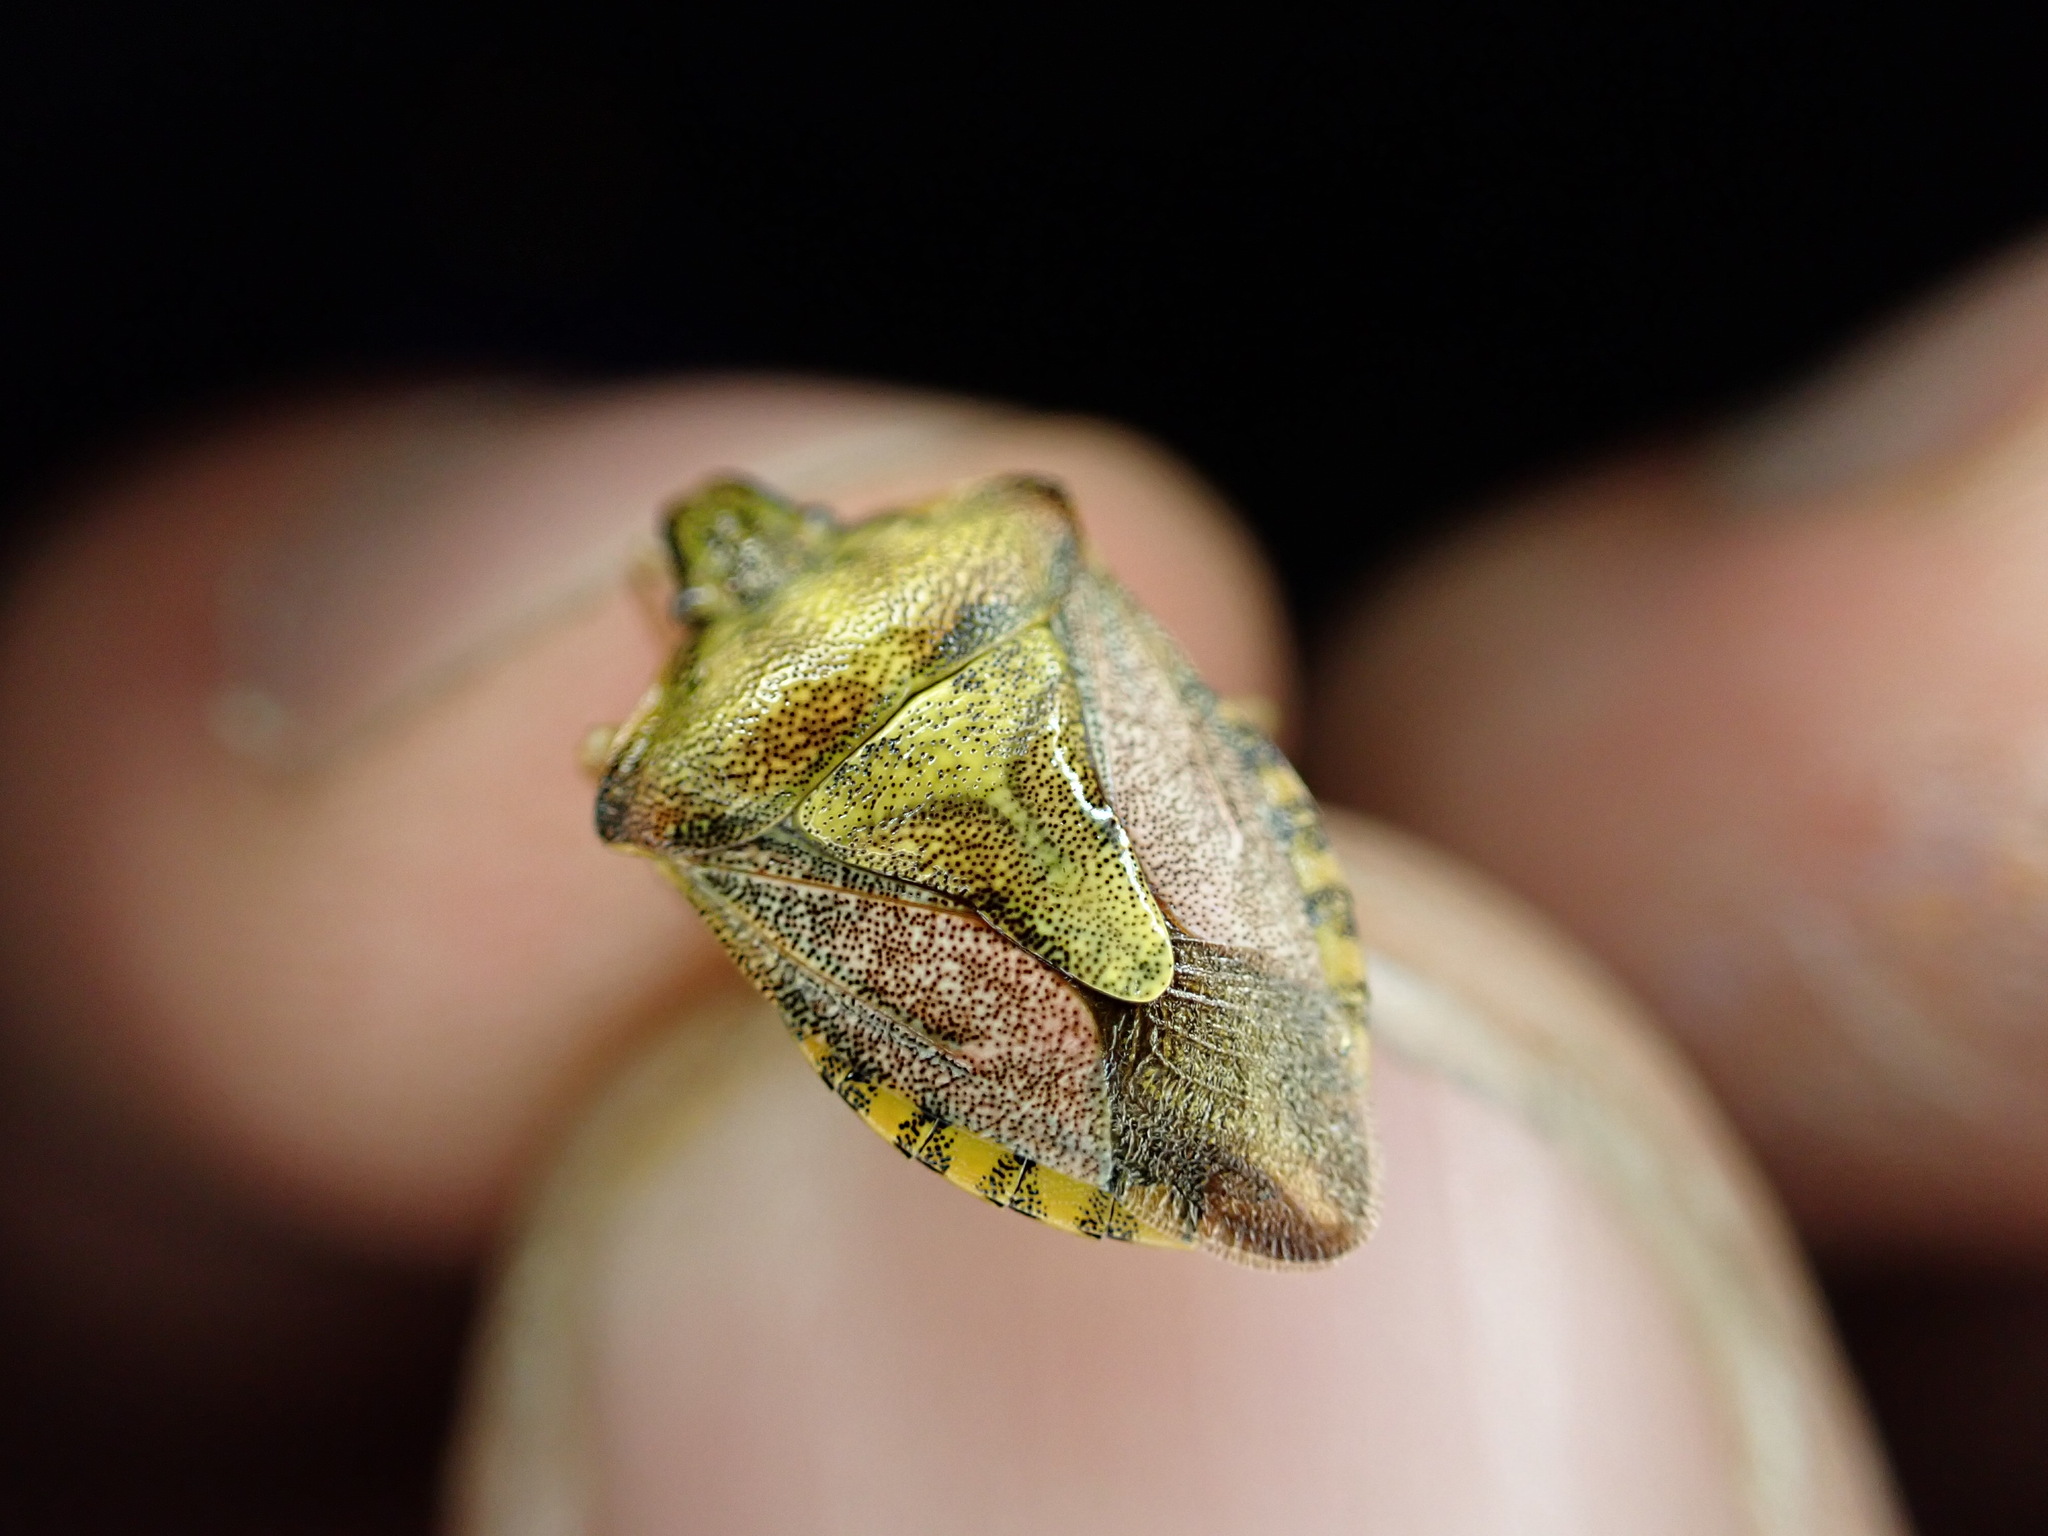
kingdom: Animalia
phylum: Arthropoda
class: Insecta
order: Hemiptera
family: Pentatomidae
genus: Carpocoris
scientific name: Carpocoris purpureipennis
